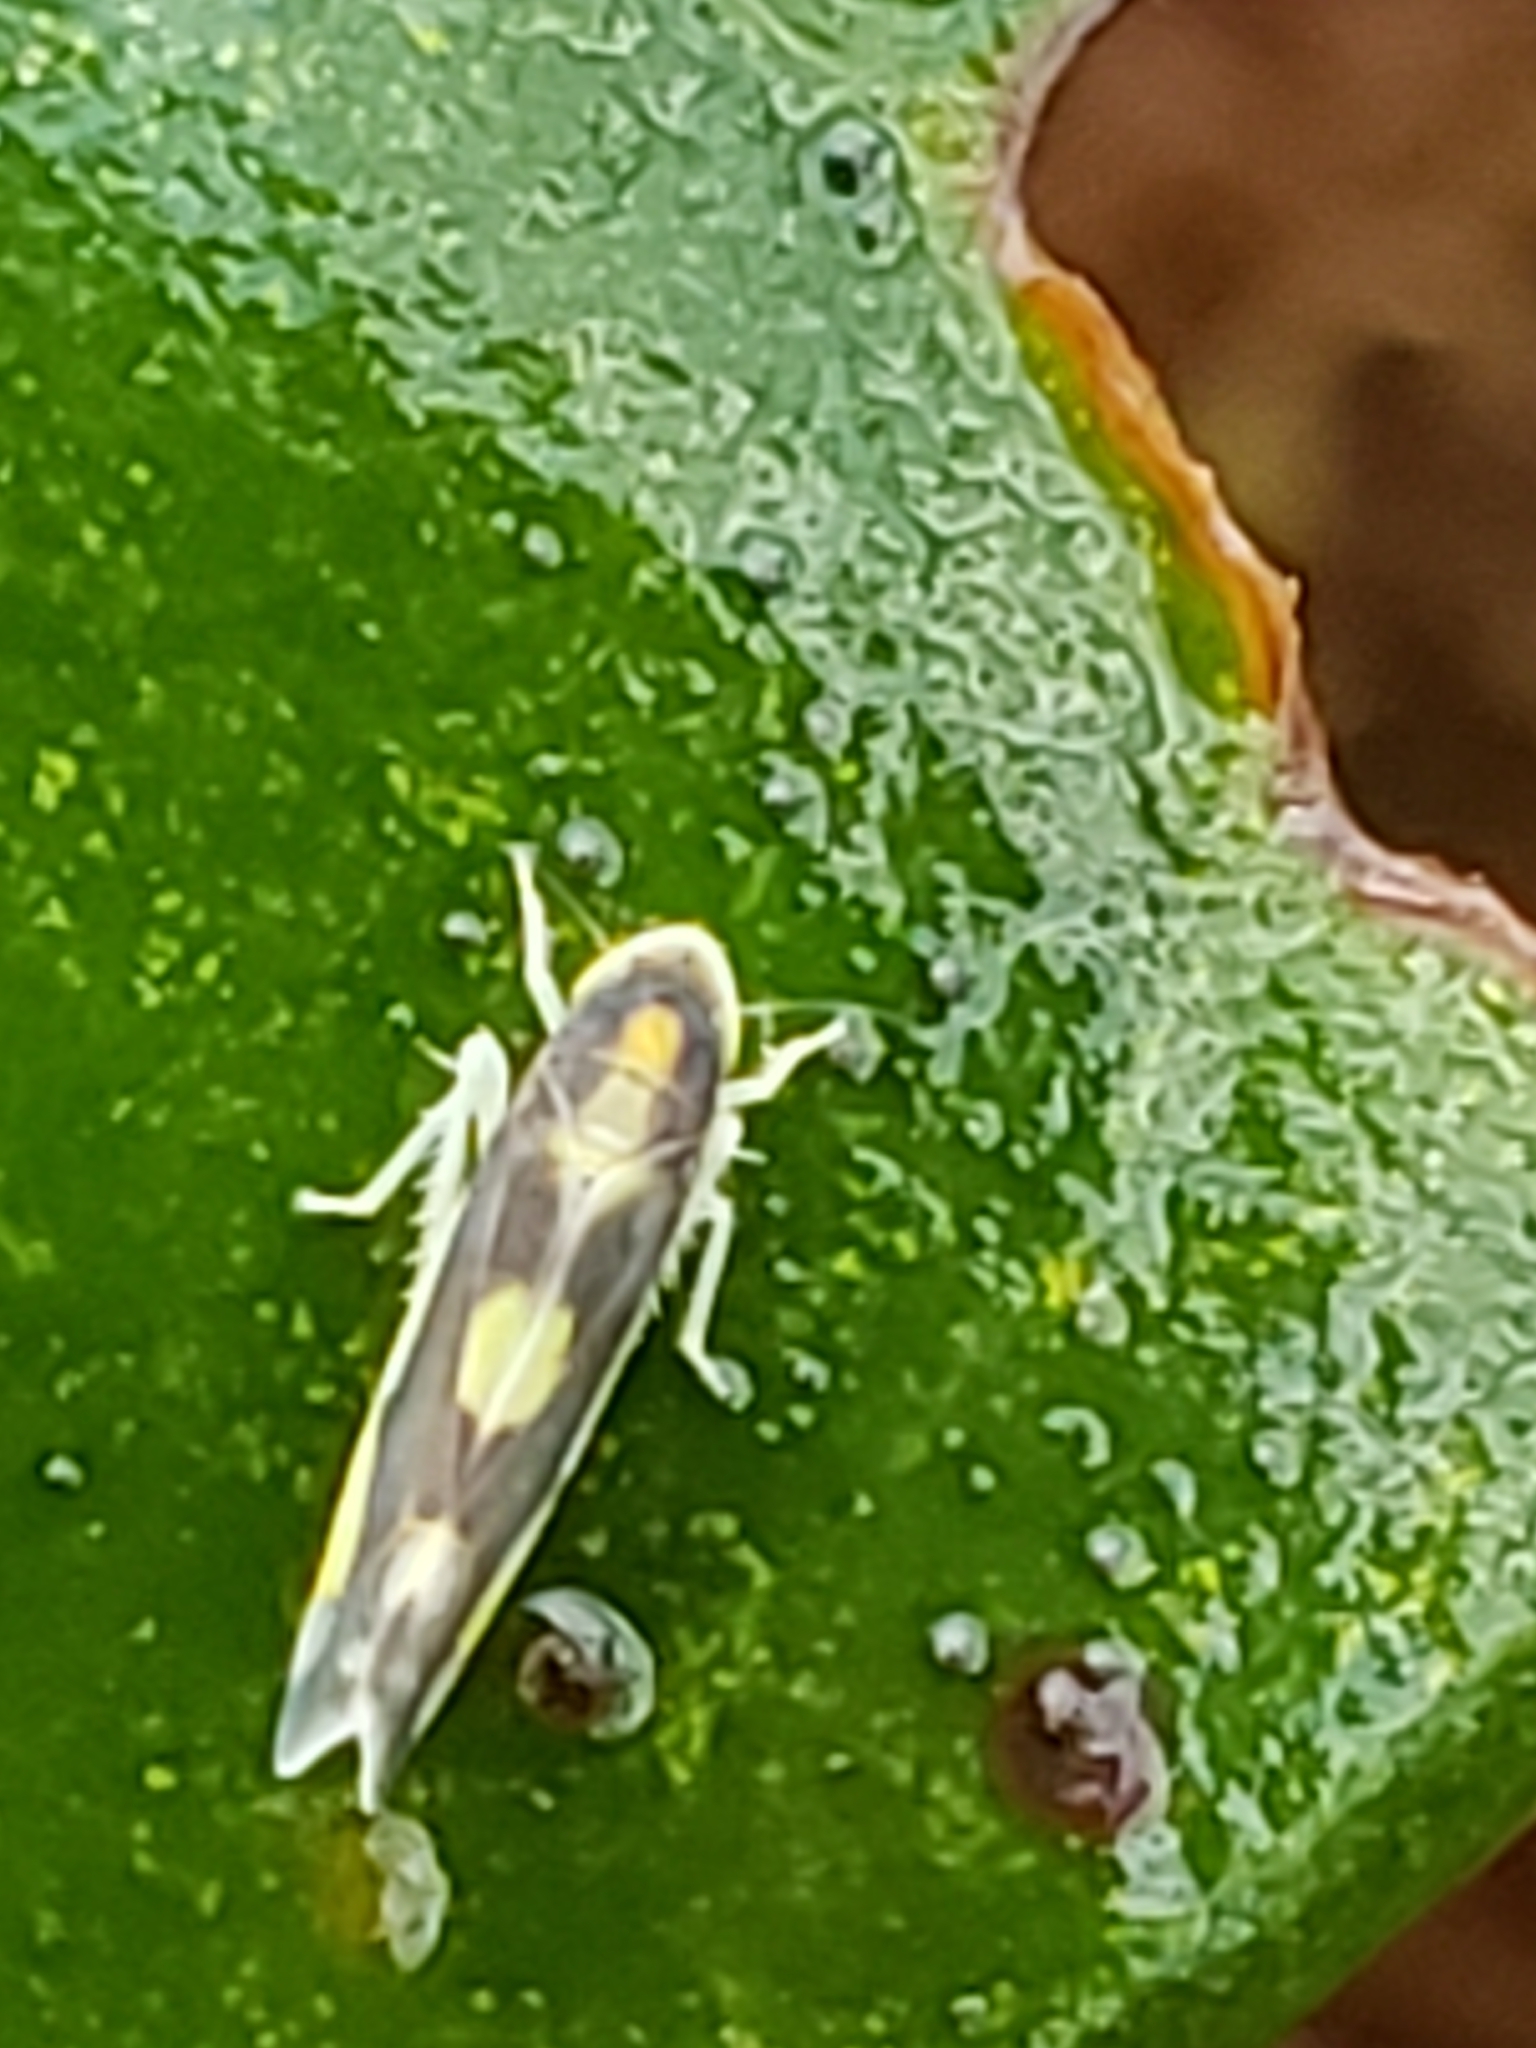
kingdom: Animalia
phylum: Arthropoda
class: Insecta
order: Hemiptera
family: Cicadellidae
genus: Eupteryx
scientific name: Eupteryx flavoscuta
